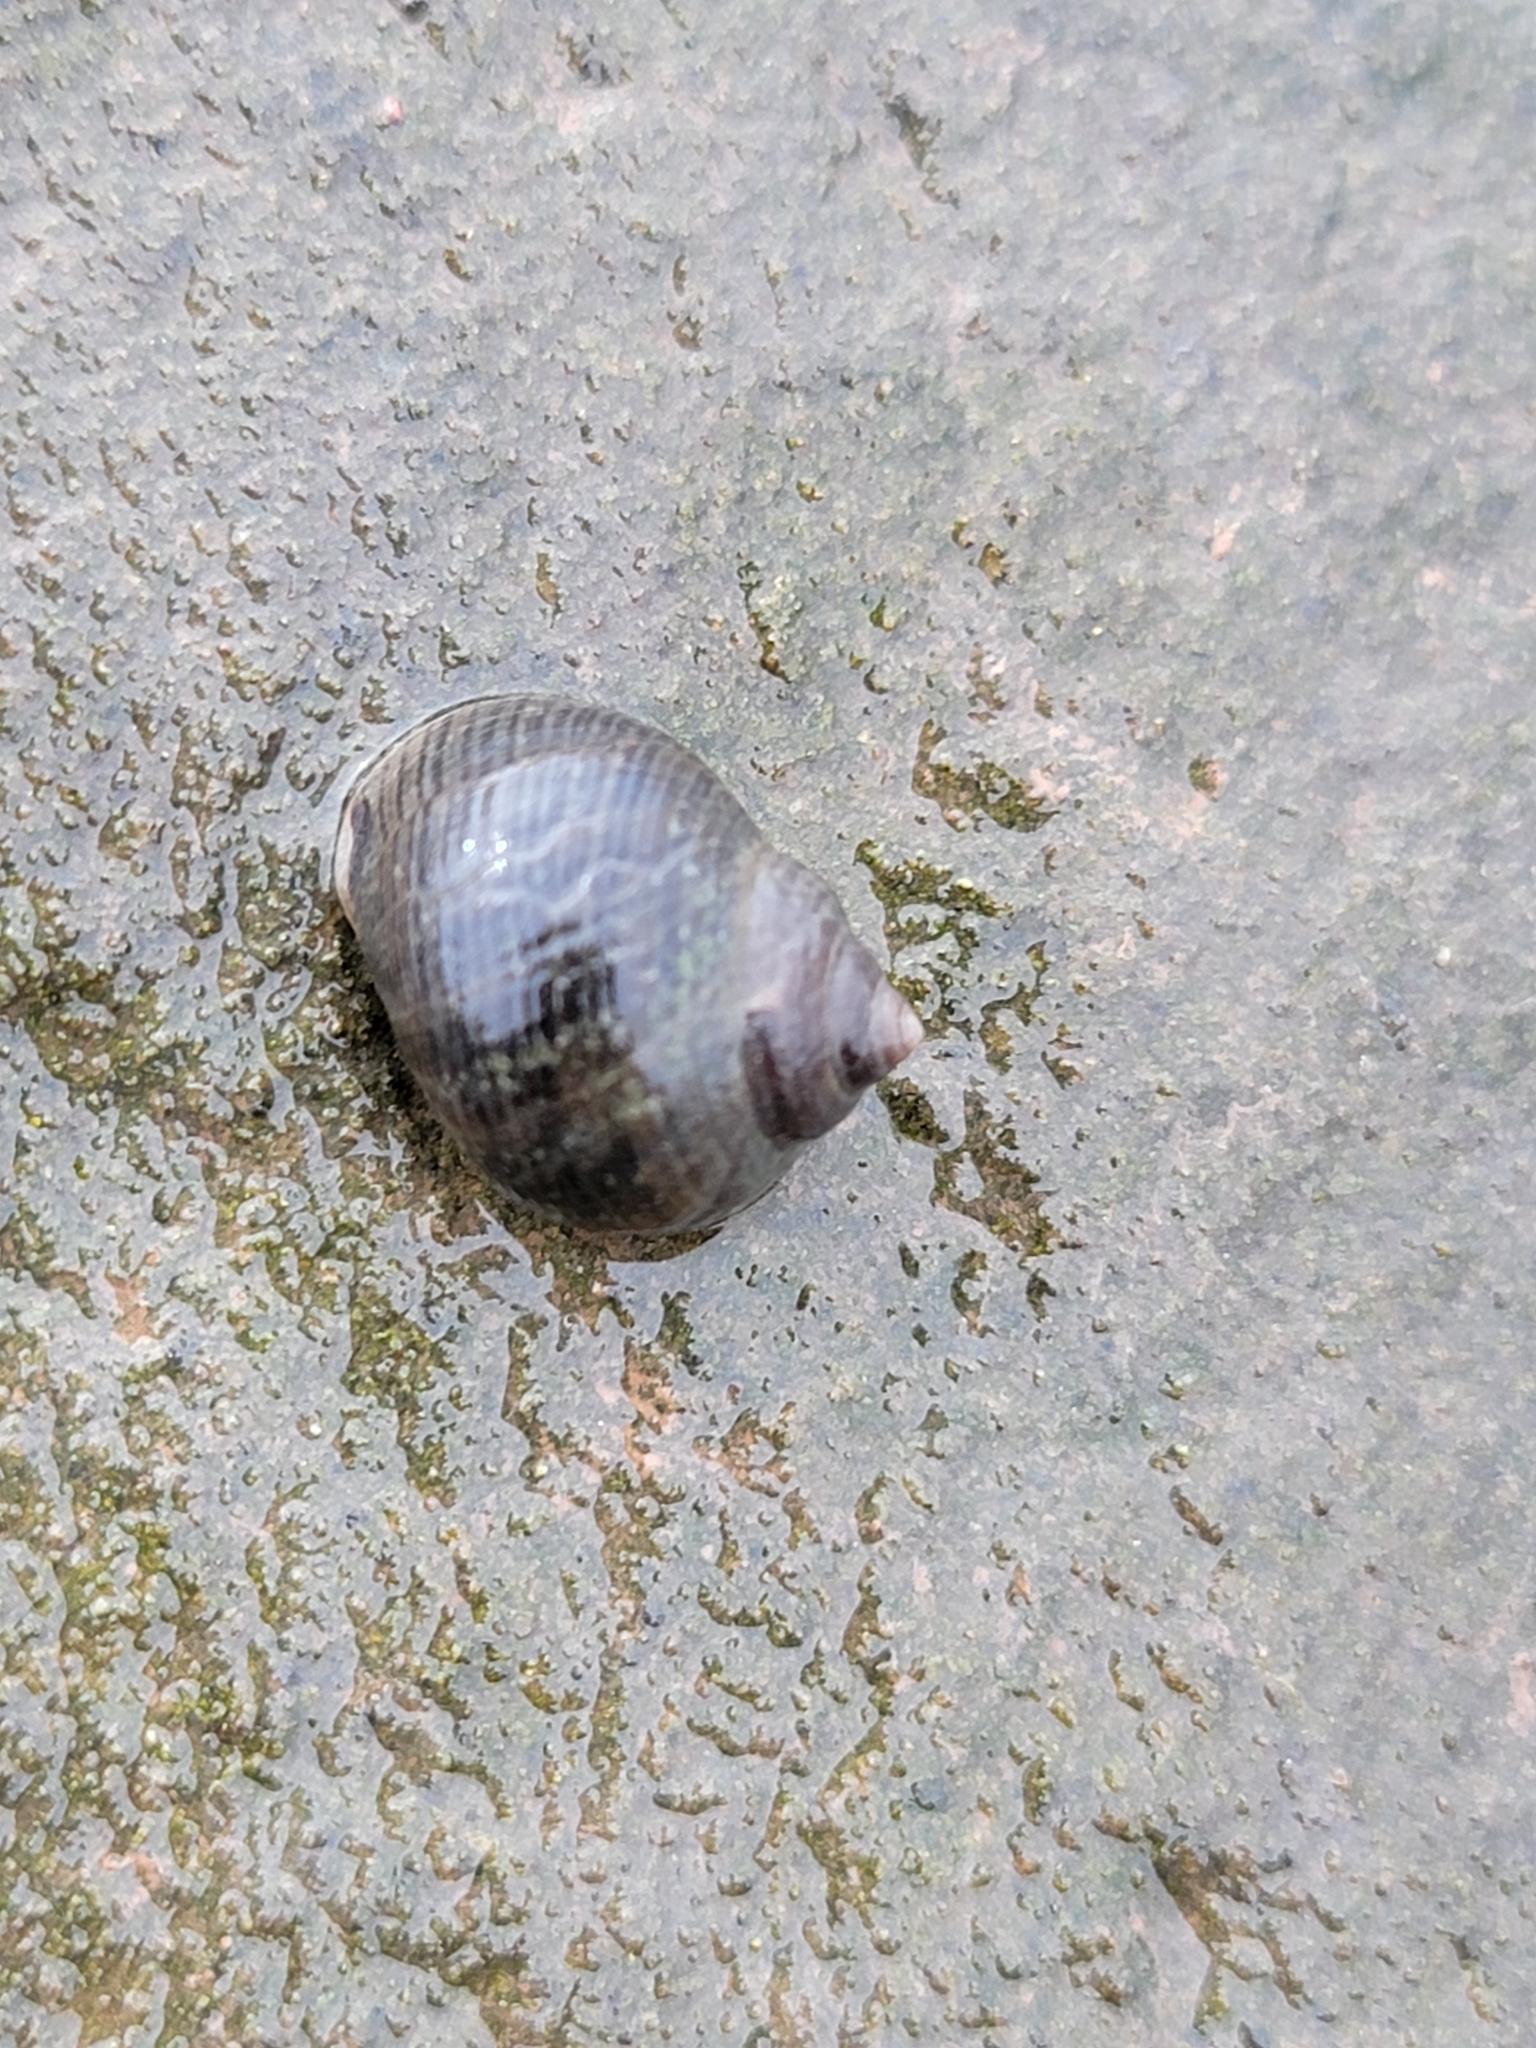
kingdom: Animalia
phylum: Mollusca
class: Gastropoda
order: Littorinimorpha
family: Littorinidae
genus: Littorina
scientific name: Littorina littorea
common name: Common periwinkle
